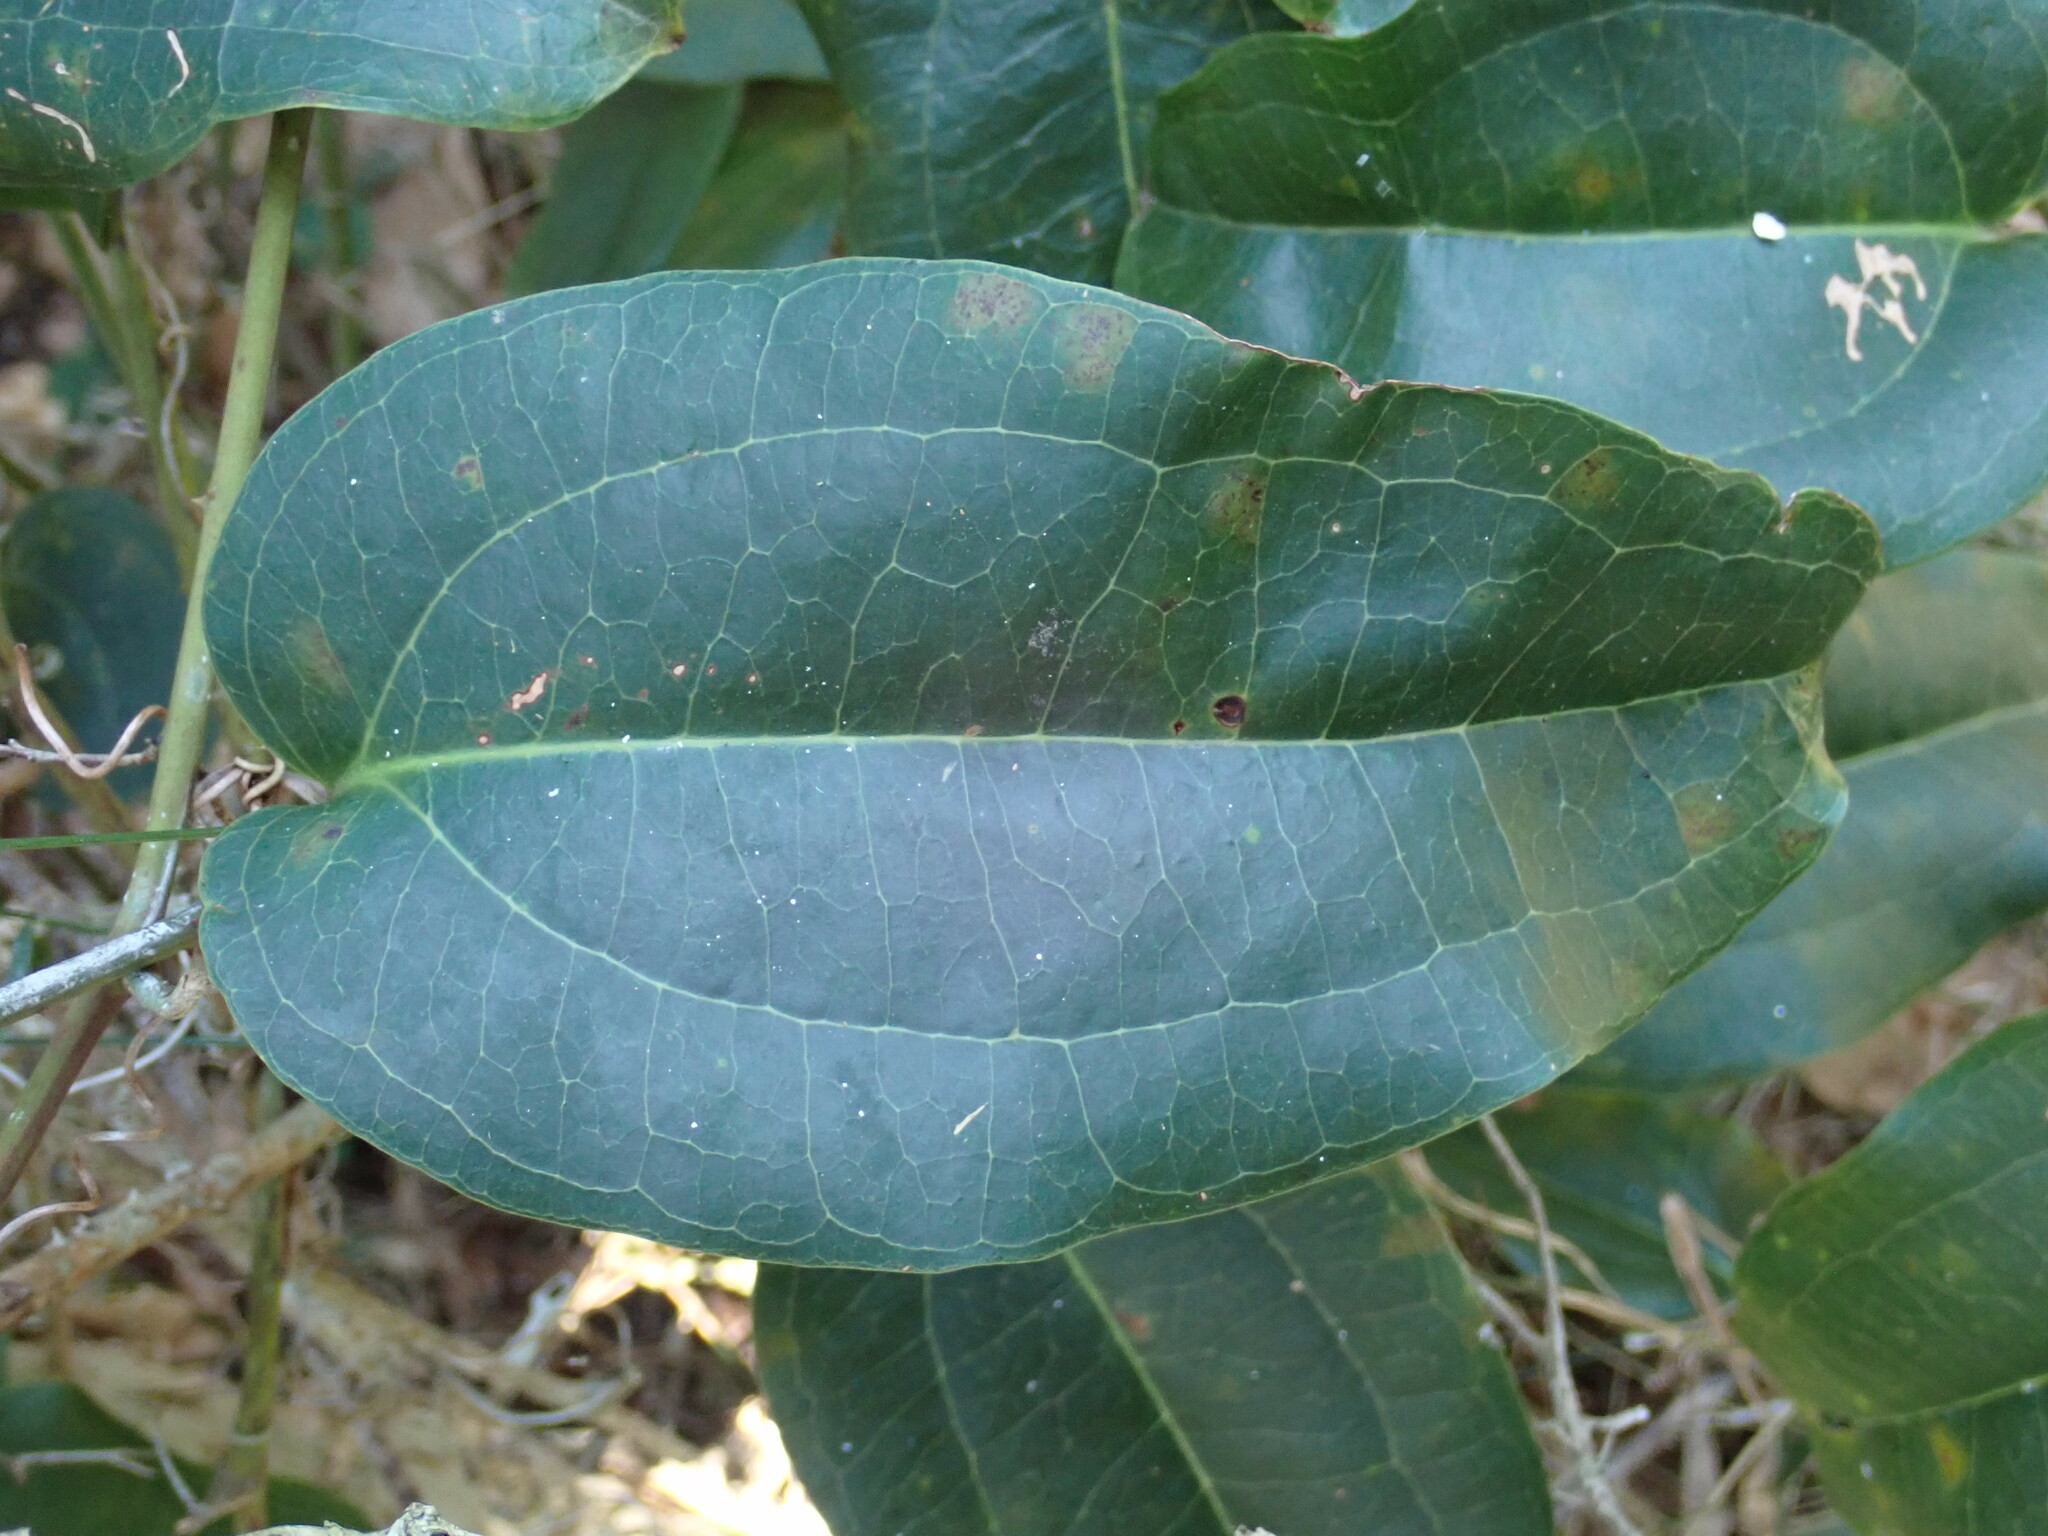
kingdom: Plantae
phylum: Tracheophyta
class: Liliopsida
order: Liliales
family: Smilacaceae
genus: Smilax
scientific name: Smilax australis
